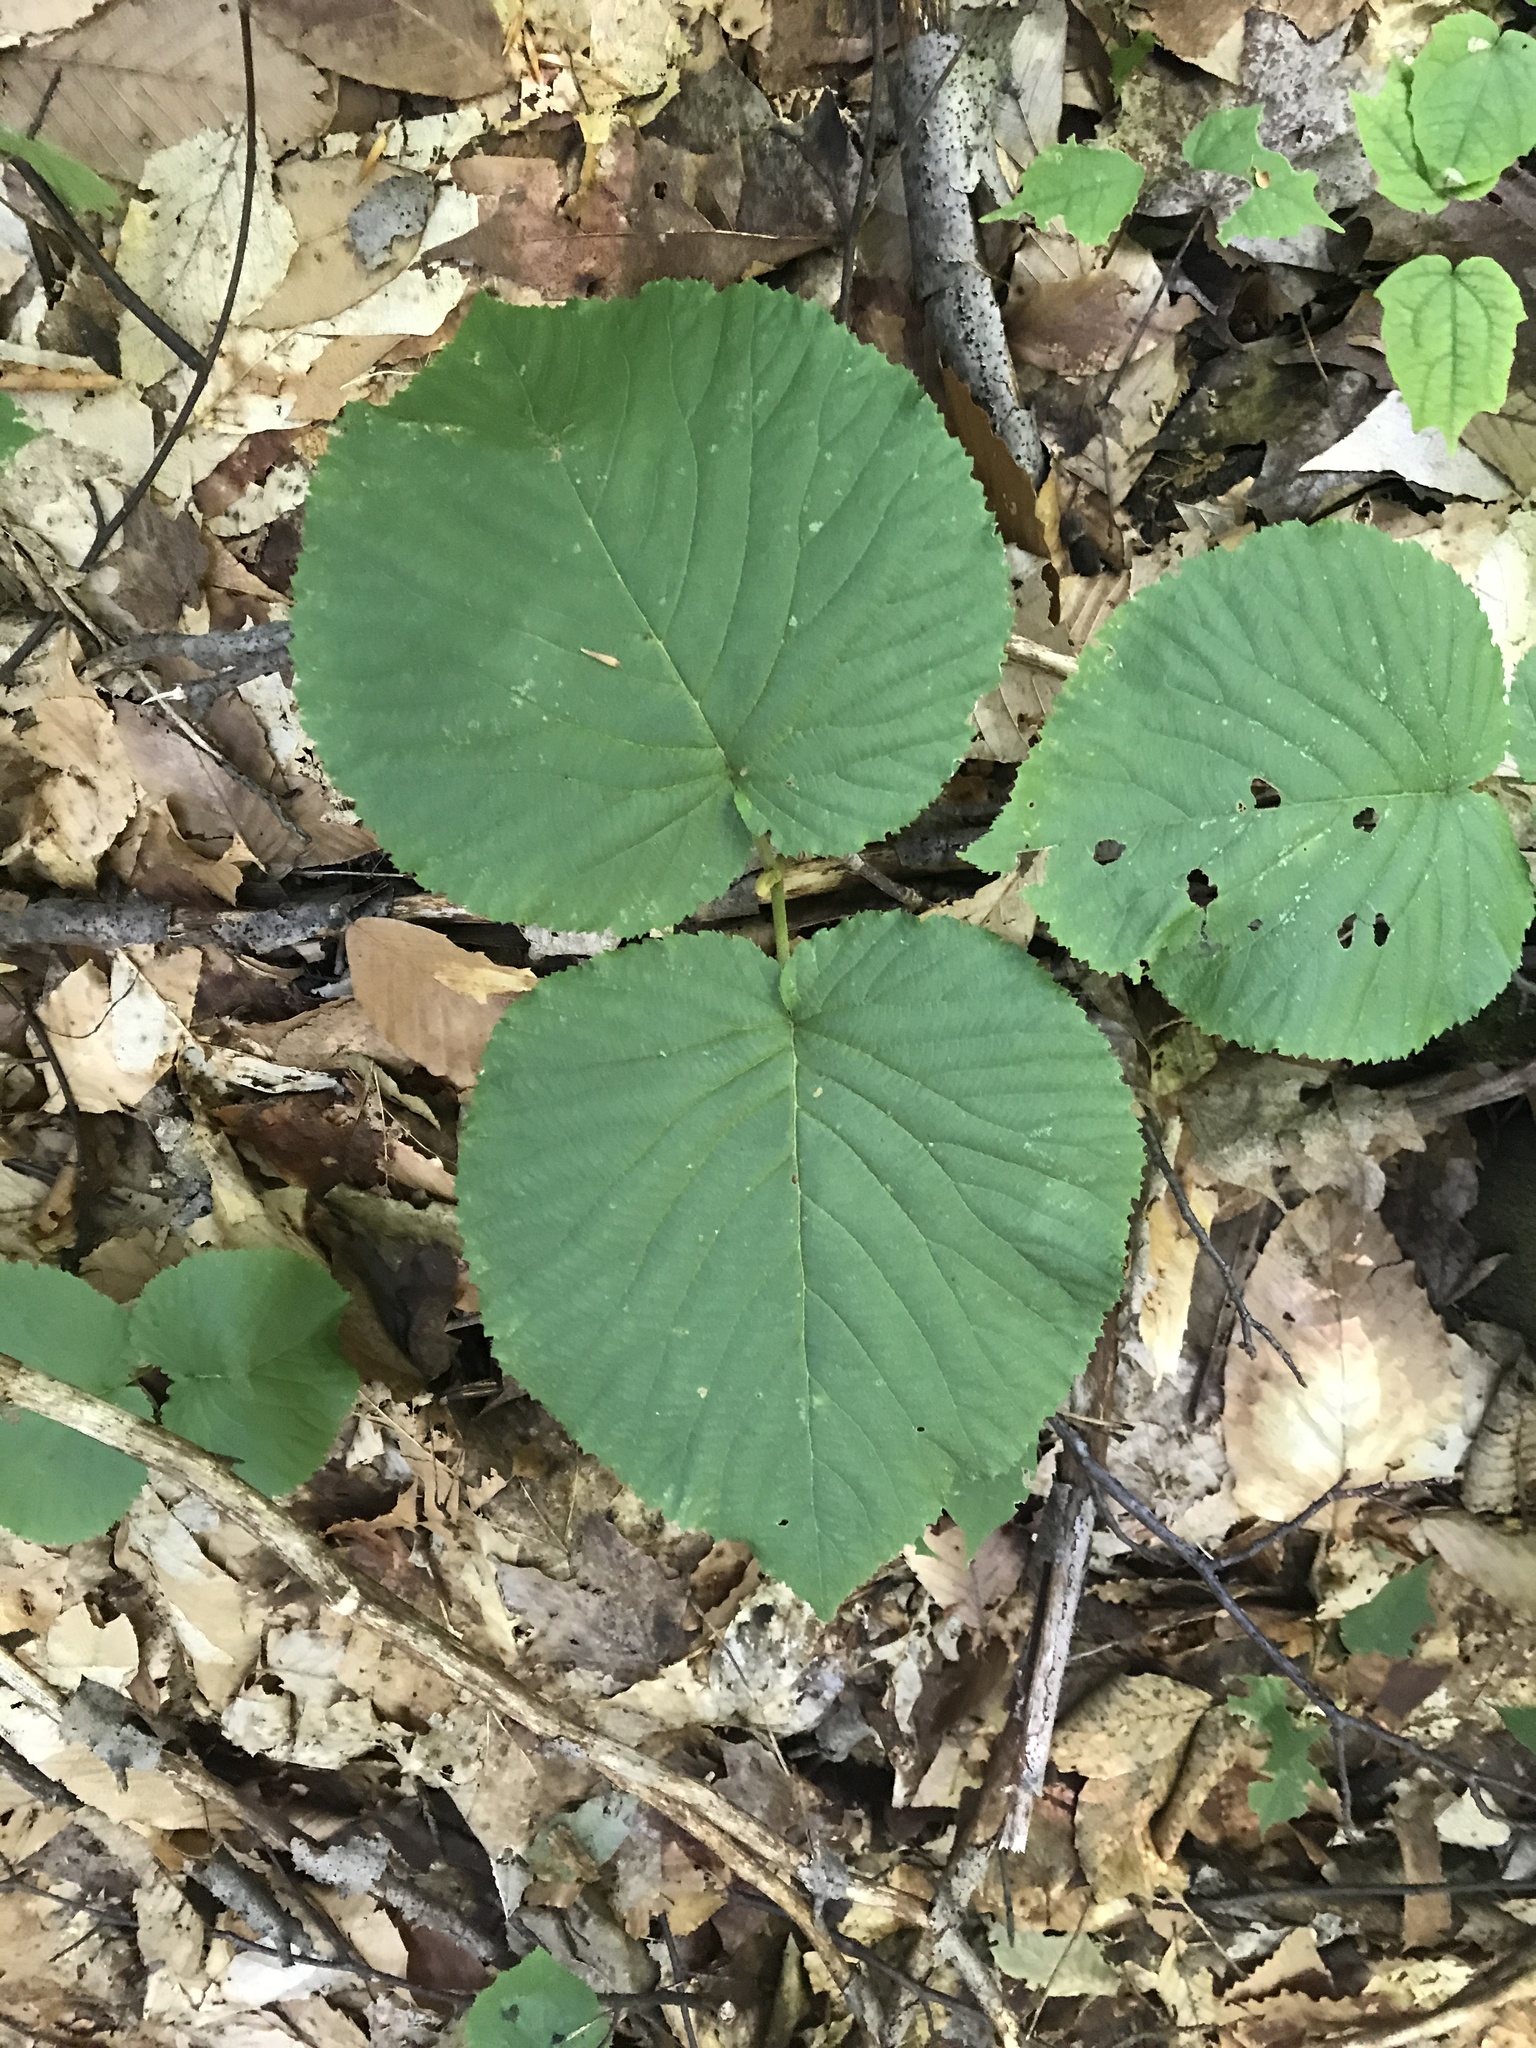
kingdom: Plantae
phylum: Tracheophyta
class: Magnoliopsida
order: Dipsacales
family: Viburnaceae
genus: Viburnum
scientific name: Viburnum lantanoides
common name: Hobblebush
